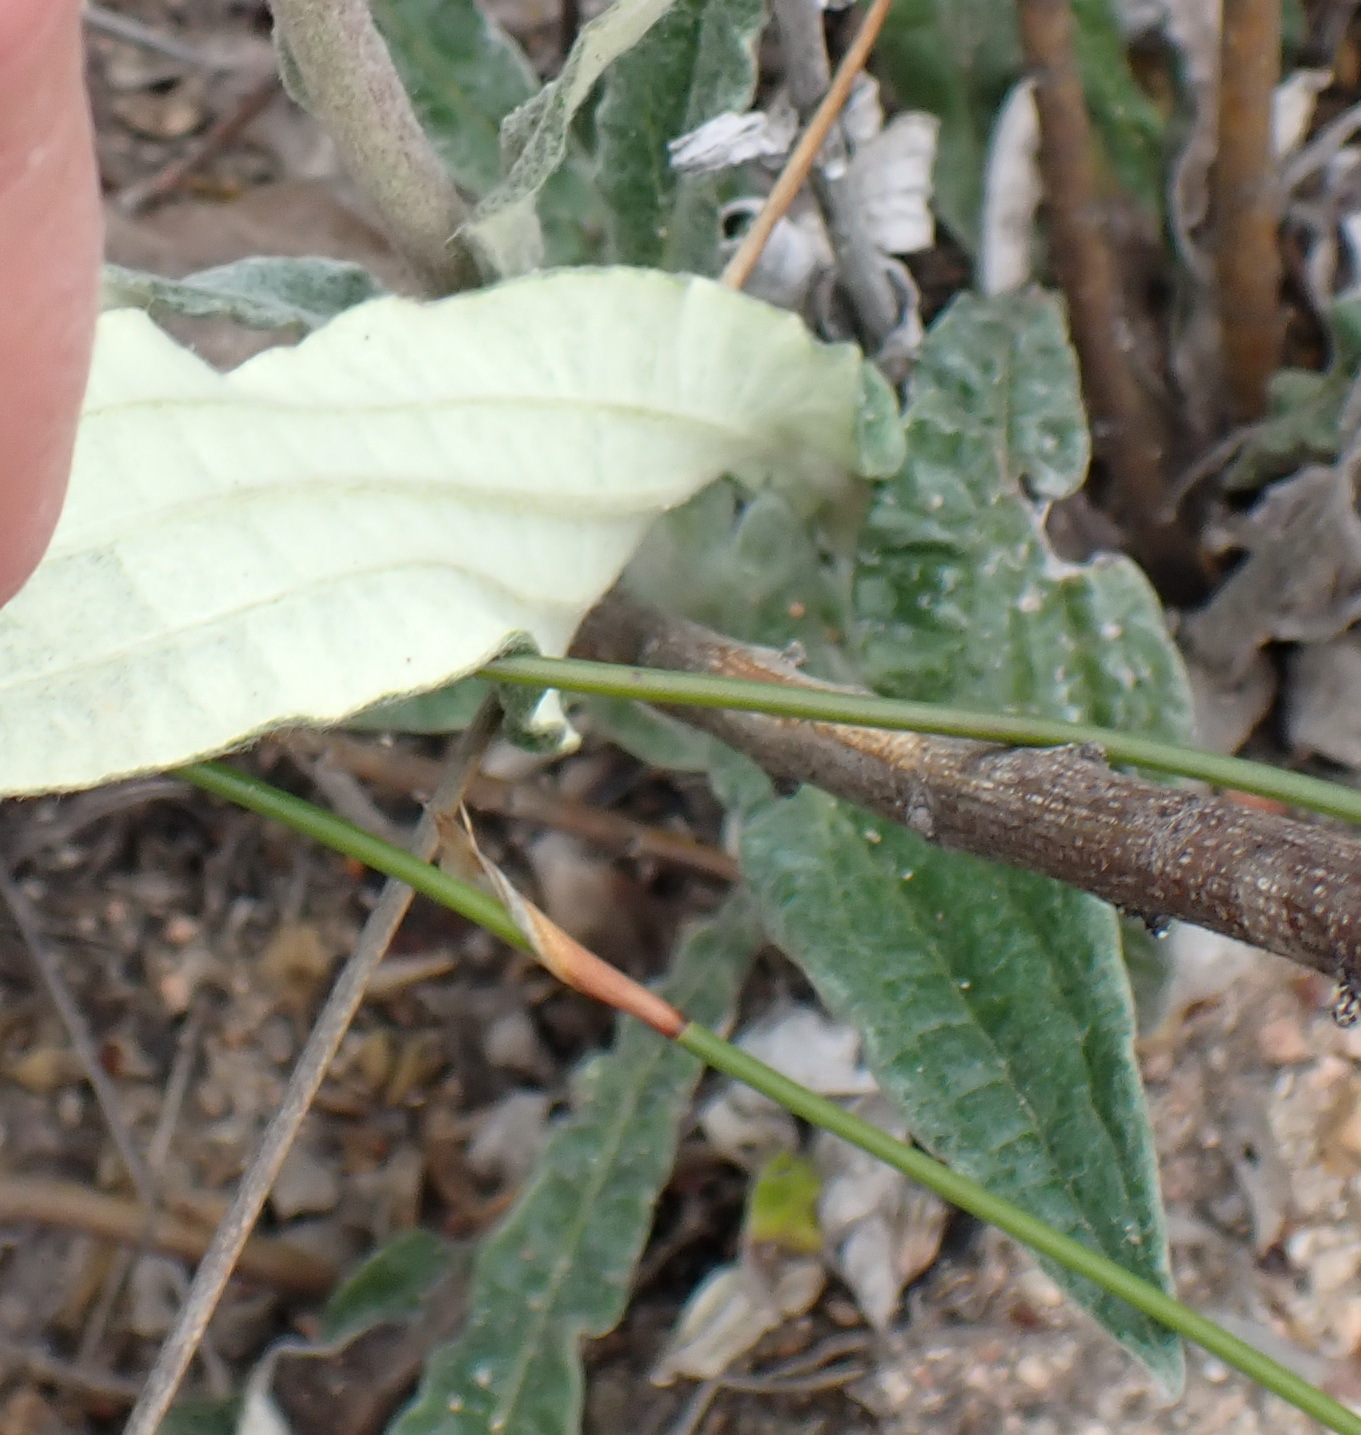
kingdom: Plantae
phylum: Tracheophyta
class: Magnoliopsida
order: Asterales
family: Asteraceae
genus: Helichrysum
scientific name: Helichrysum nudifolium
